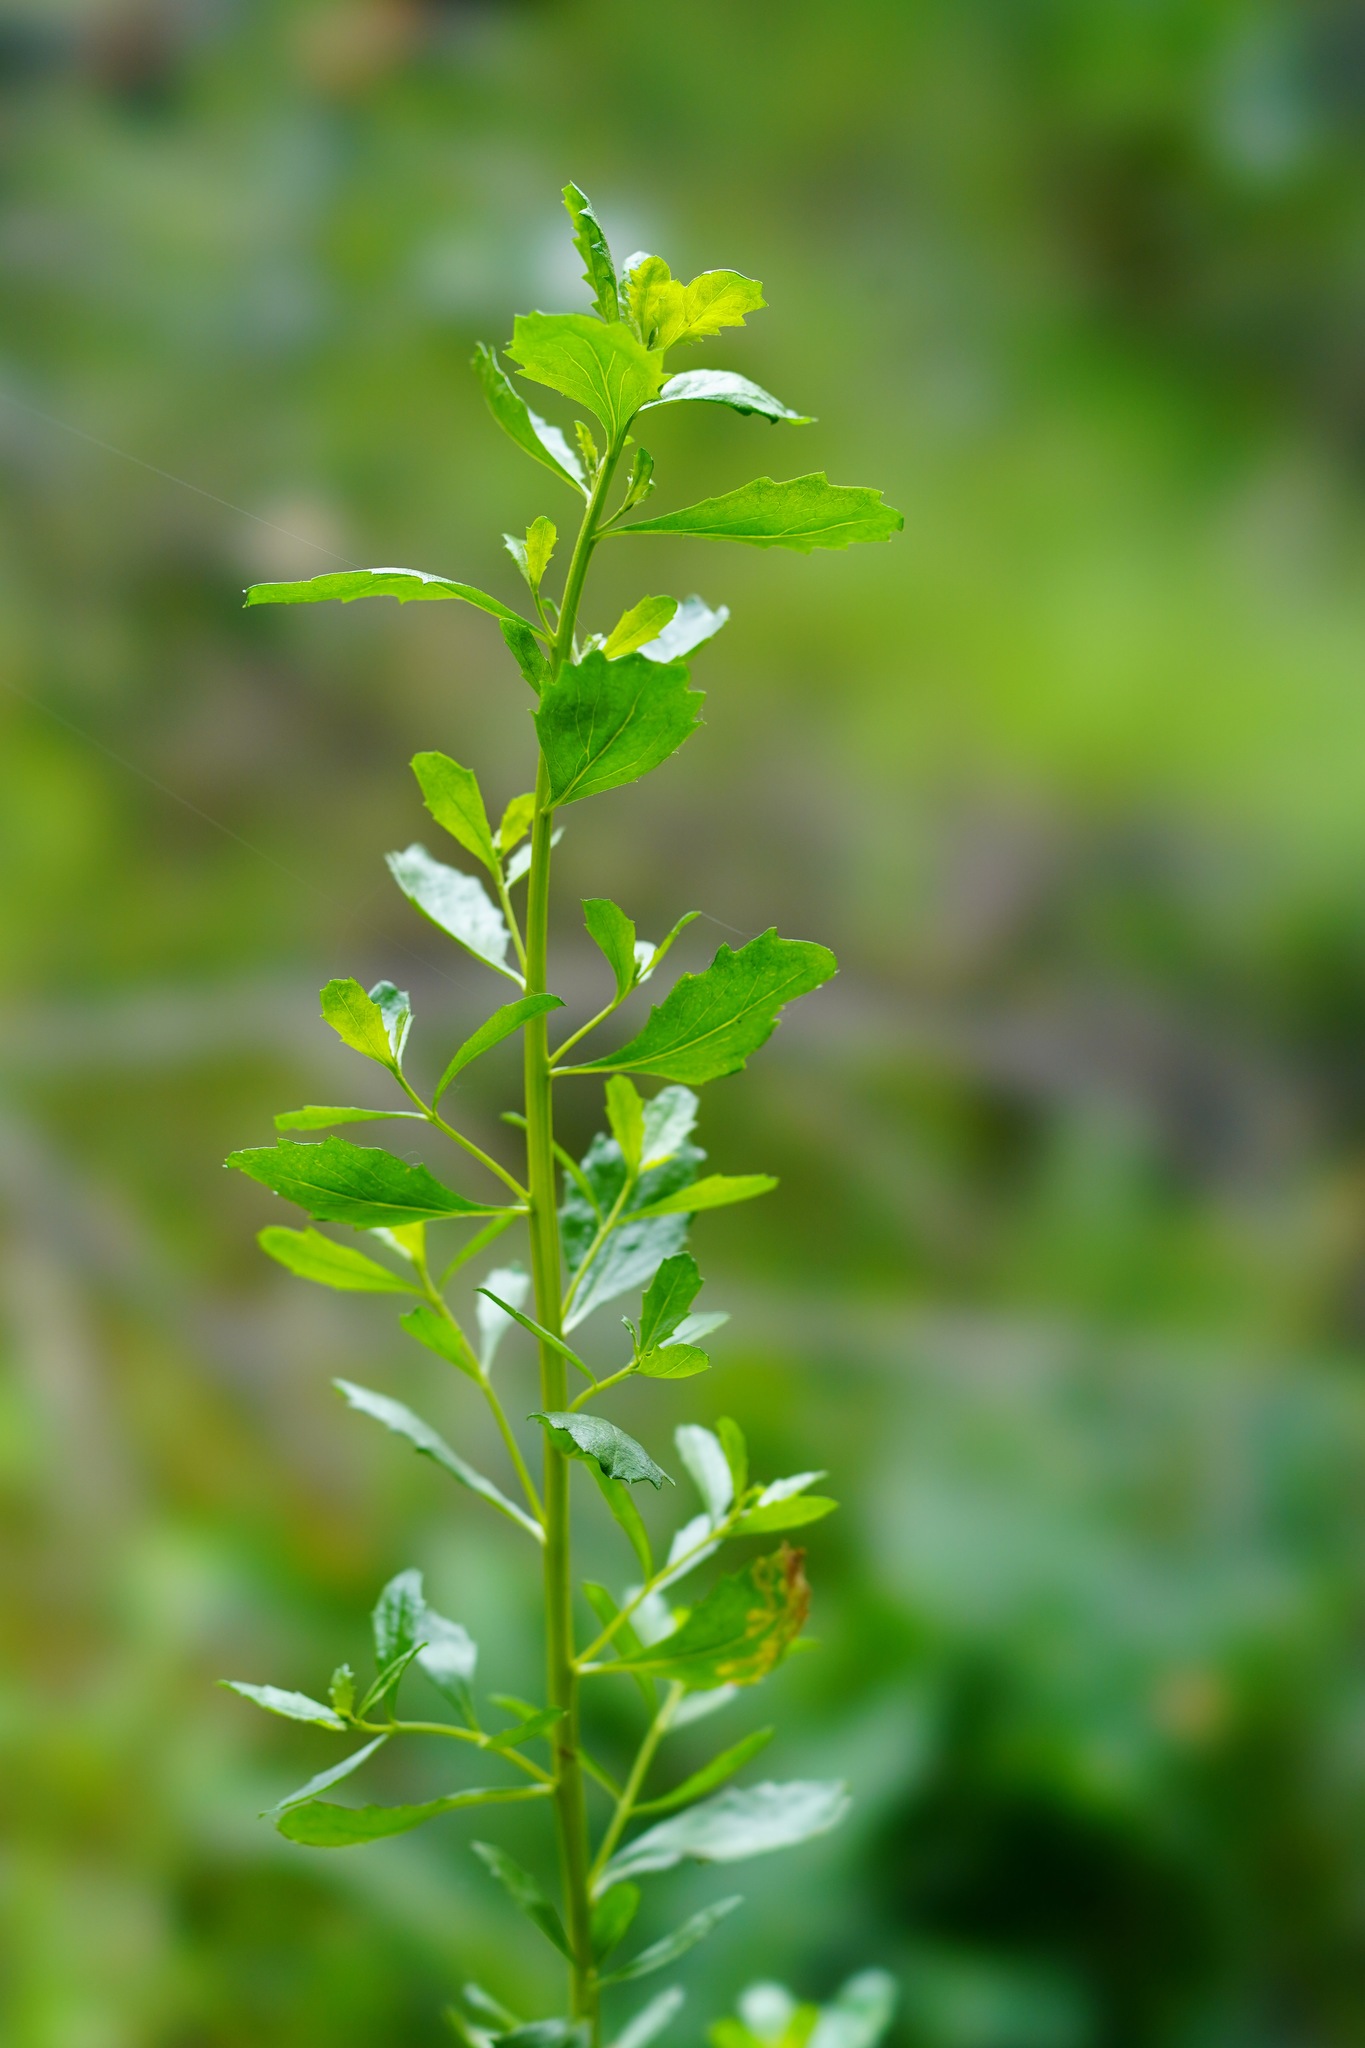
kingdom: Plantae
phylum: Tracheophyta
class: Magnoliopsida
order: Asterales
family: Asteraceae
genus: Baccharis
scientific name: Baccharis pilularis
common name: Coyotebrush
